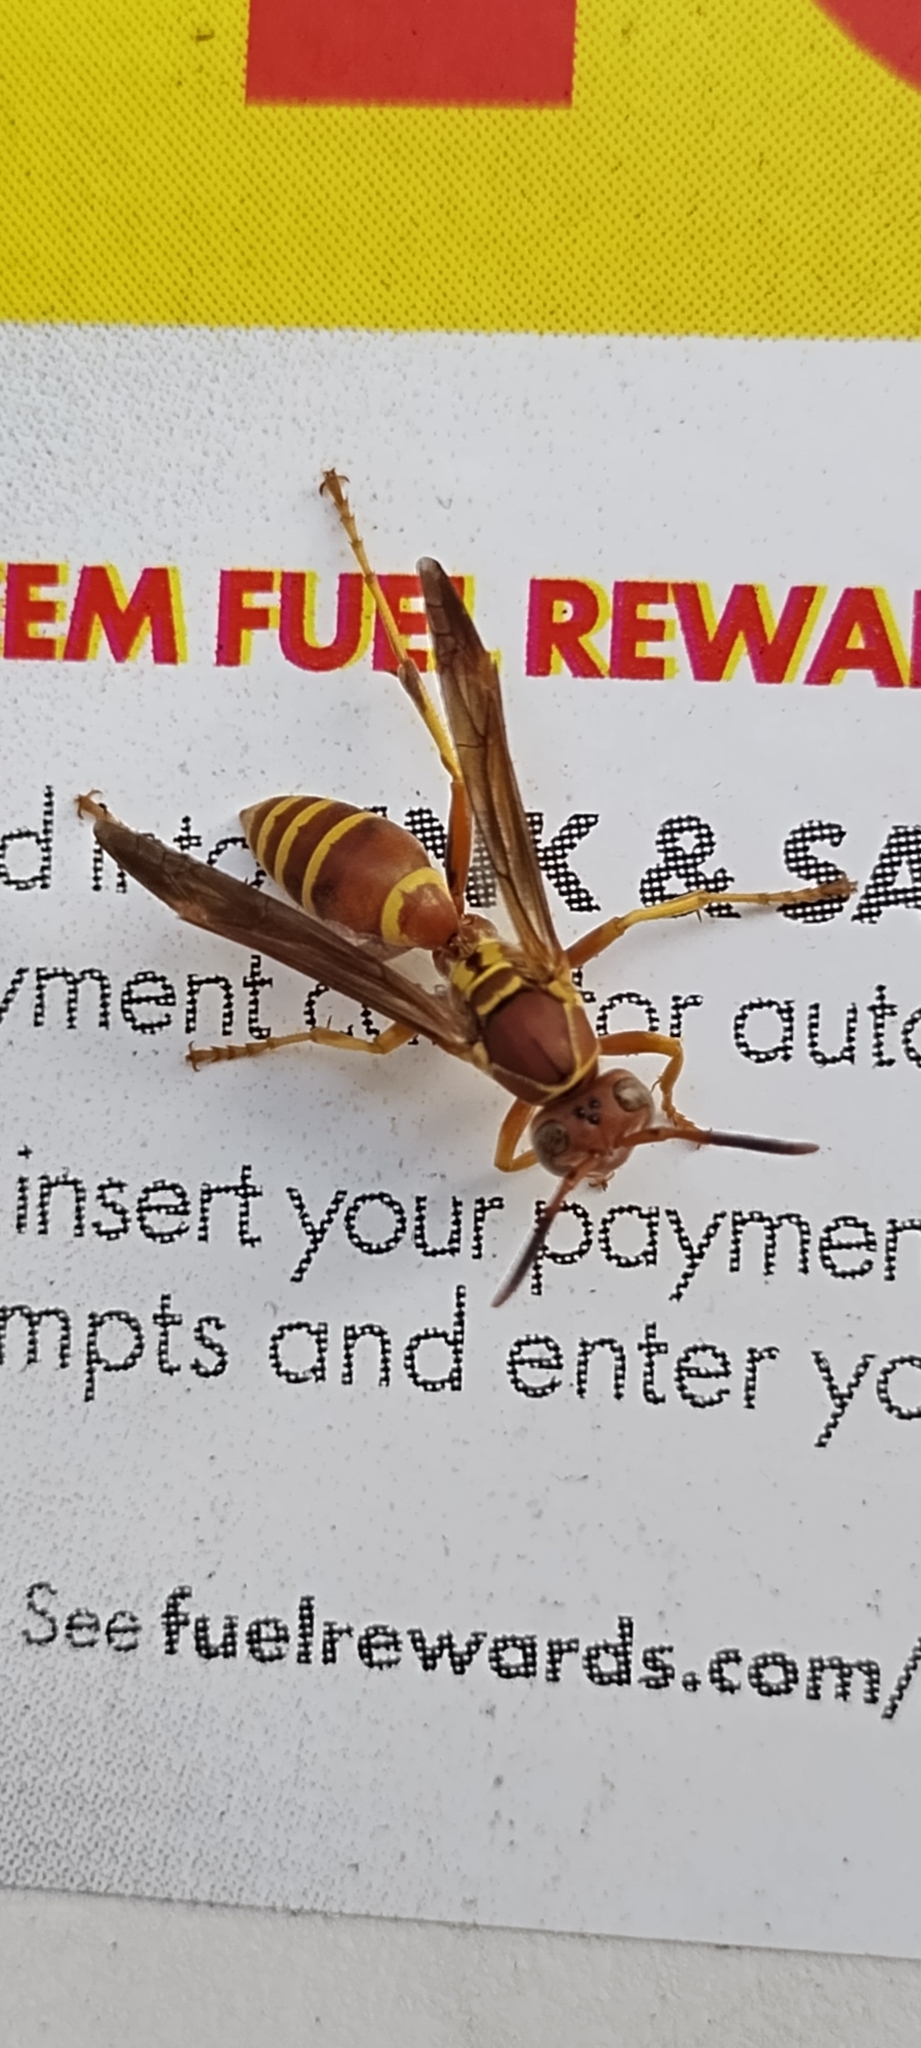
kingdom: Animalia
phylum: Arthropoda
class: Insecta
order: Hymenoptera
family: Eumenidae
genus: Polistes
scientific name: Polistes dorsalis
